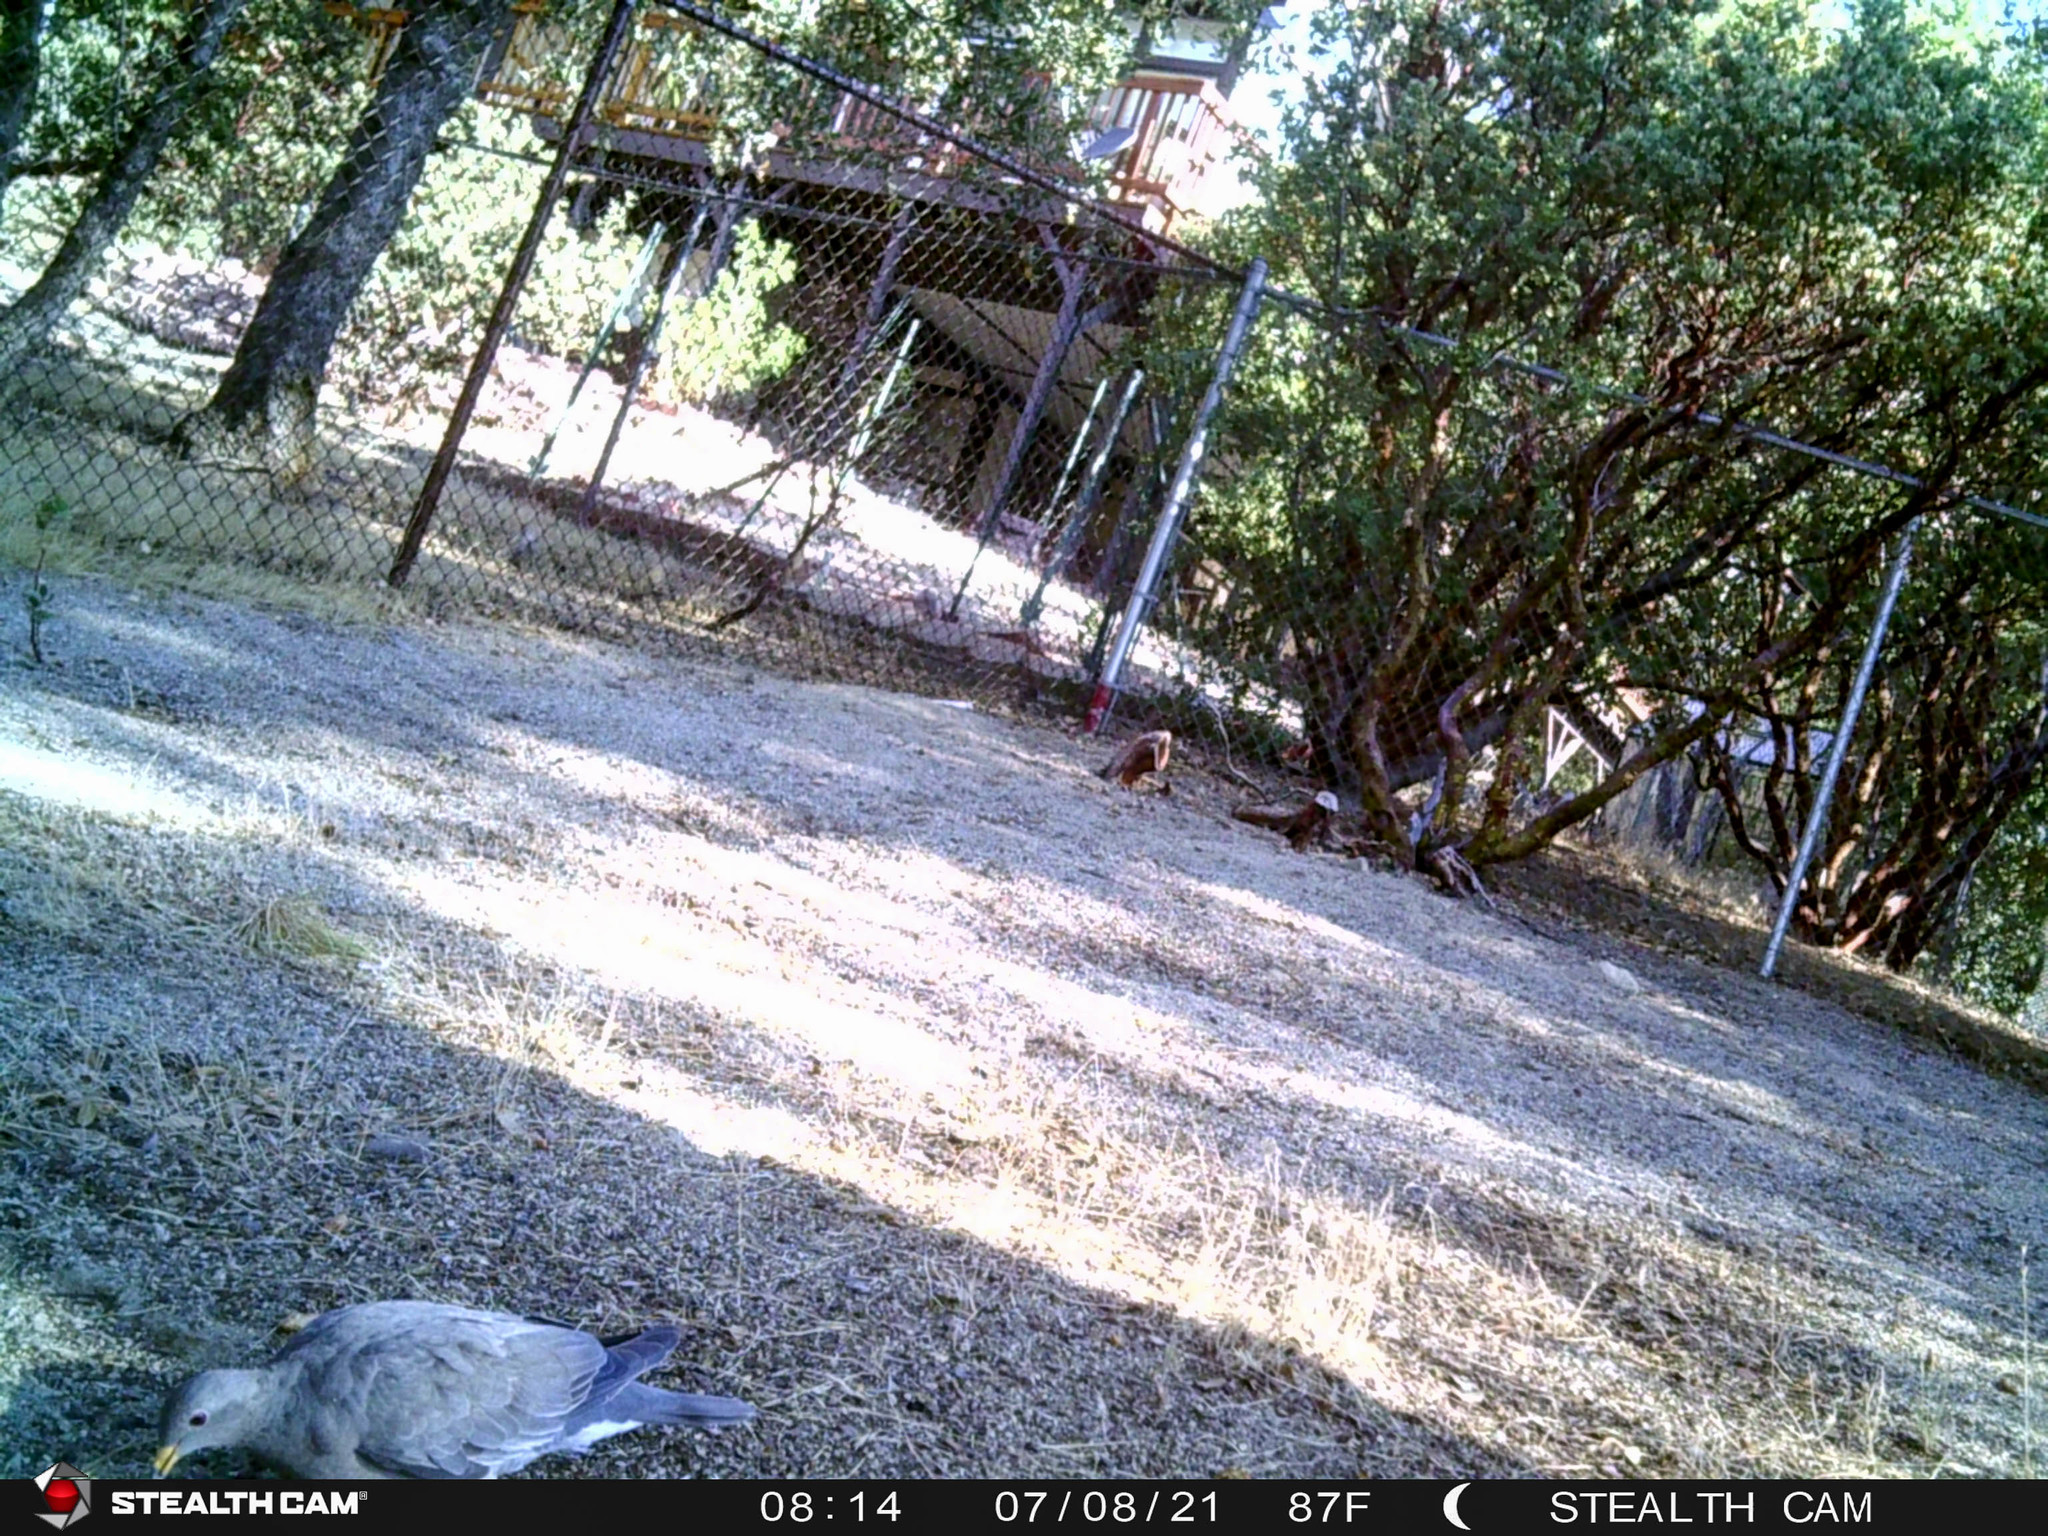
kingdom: Animalia
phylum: Chordata
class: Aves
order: Columbiformes
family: Columbidae
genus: Patagioenas
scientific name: Patagioenas fasciata
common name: Band-tailed pigeon
